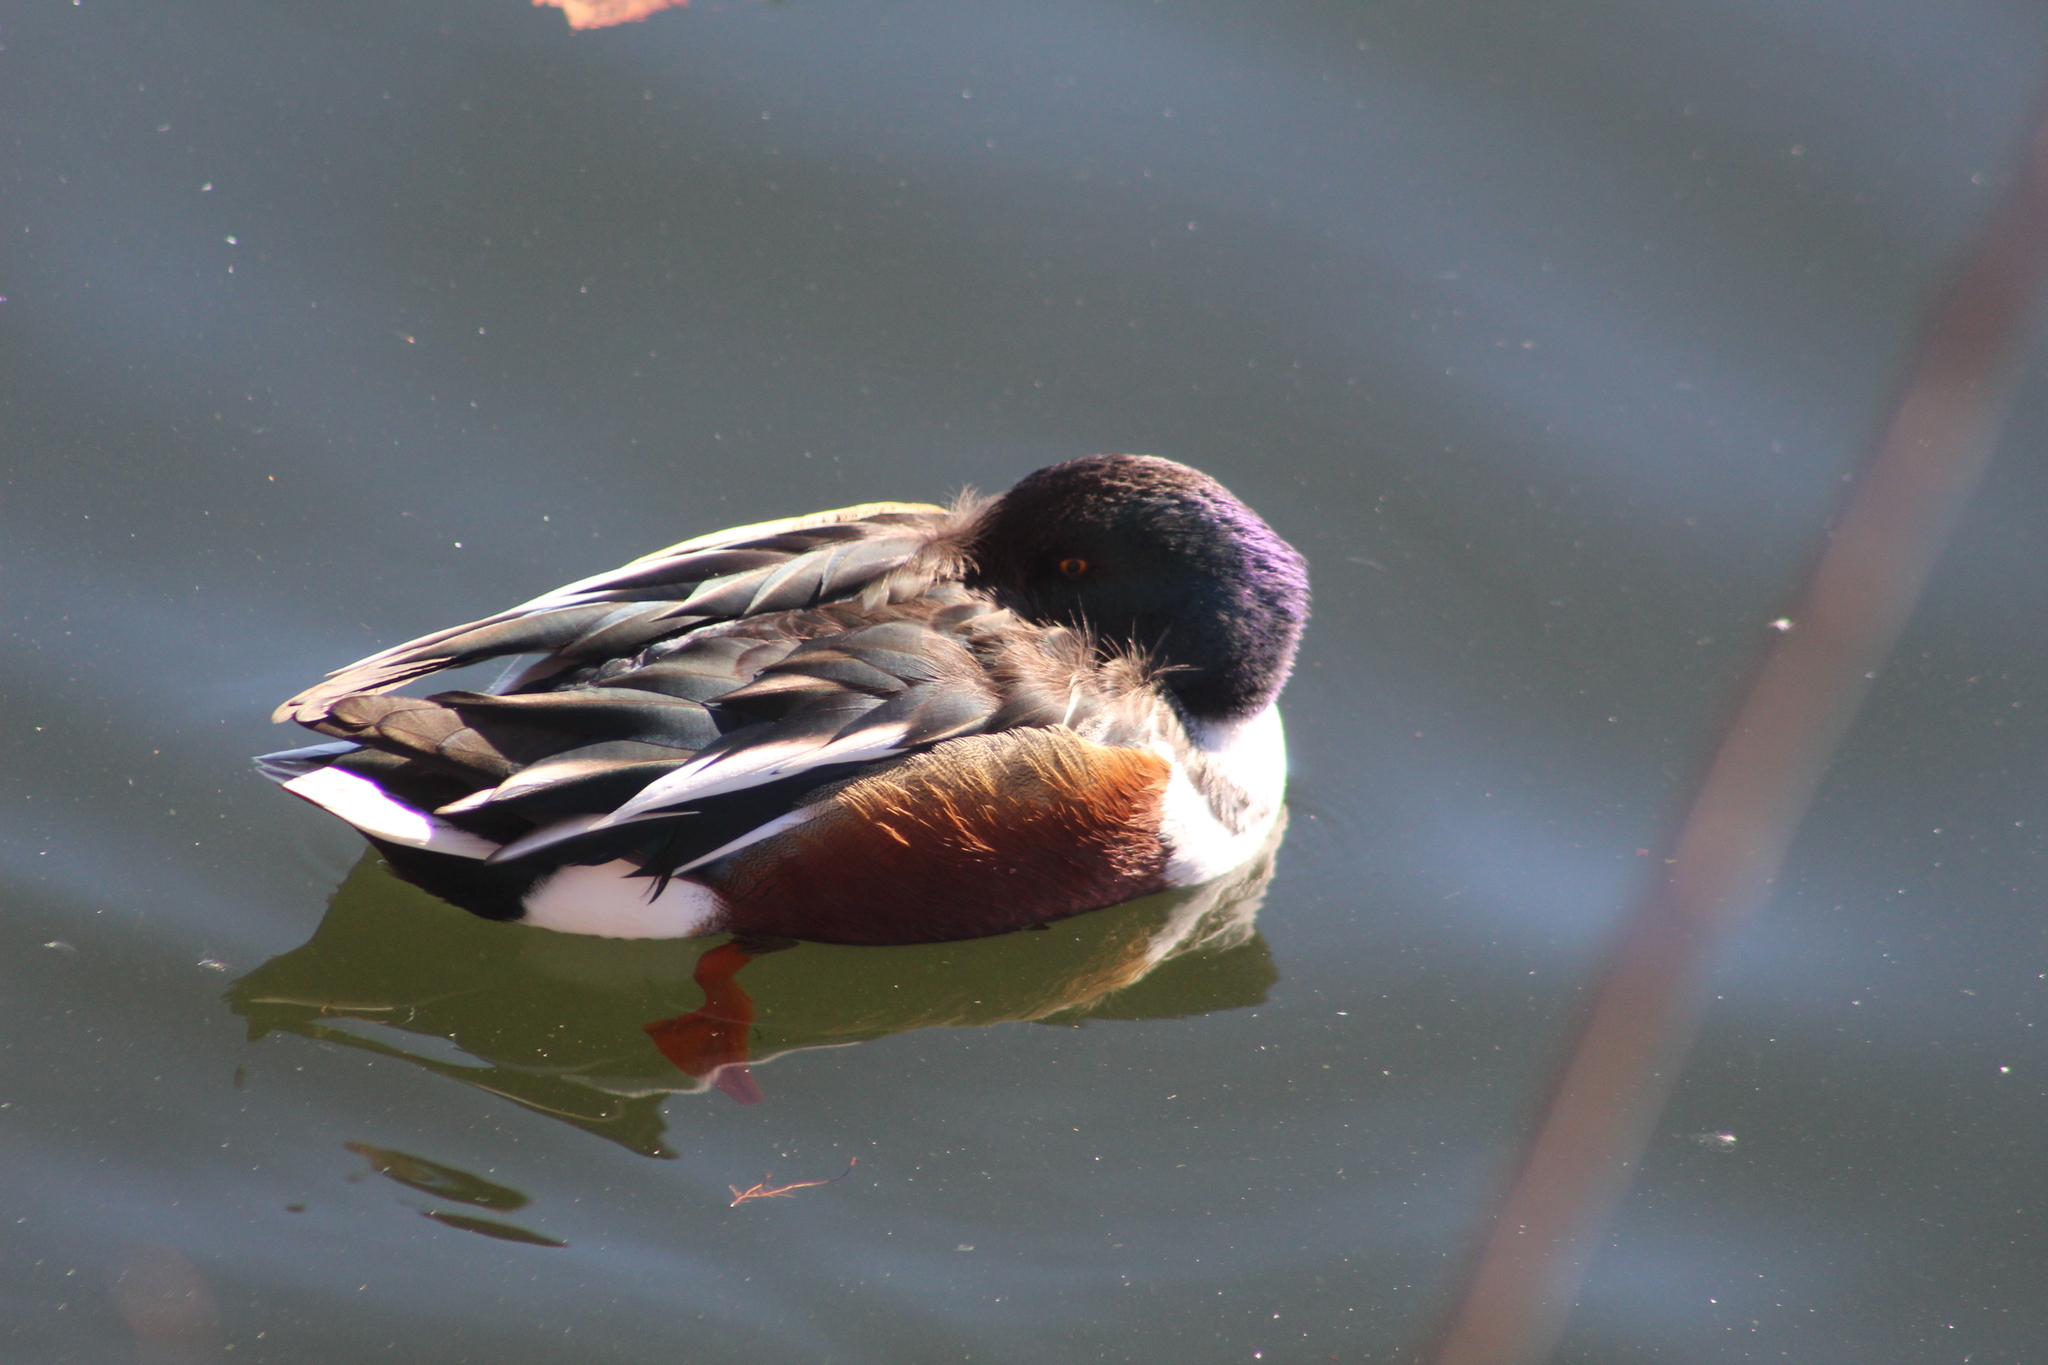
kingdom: Animalia
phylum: Chordata
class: Aves
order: Anseriformes
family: Anatidae
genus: Spatula
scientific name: Spatula clypeata
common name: Northern shoveler
